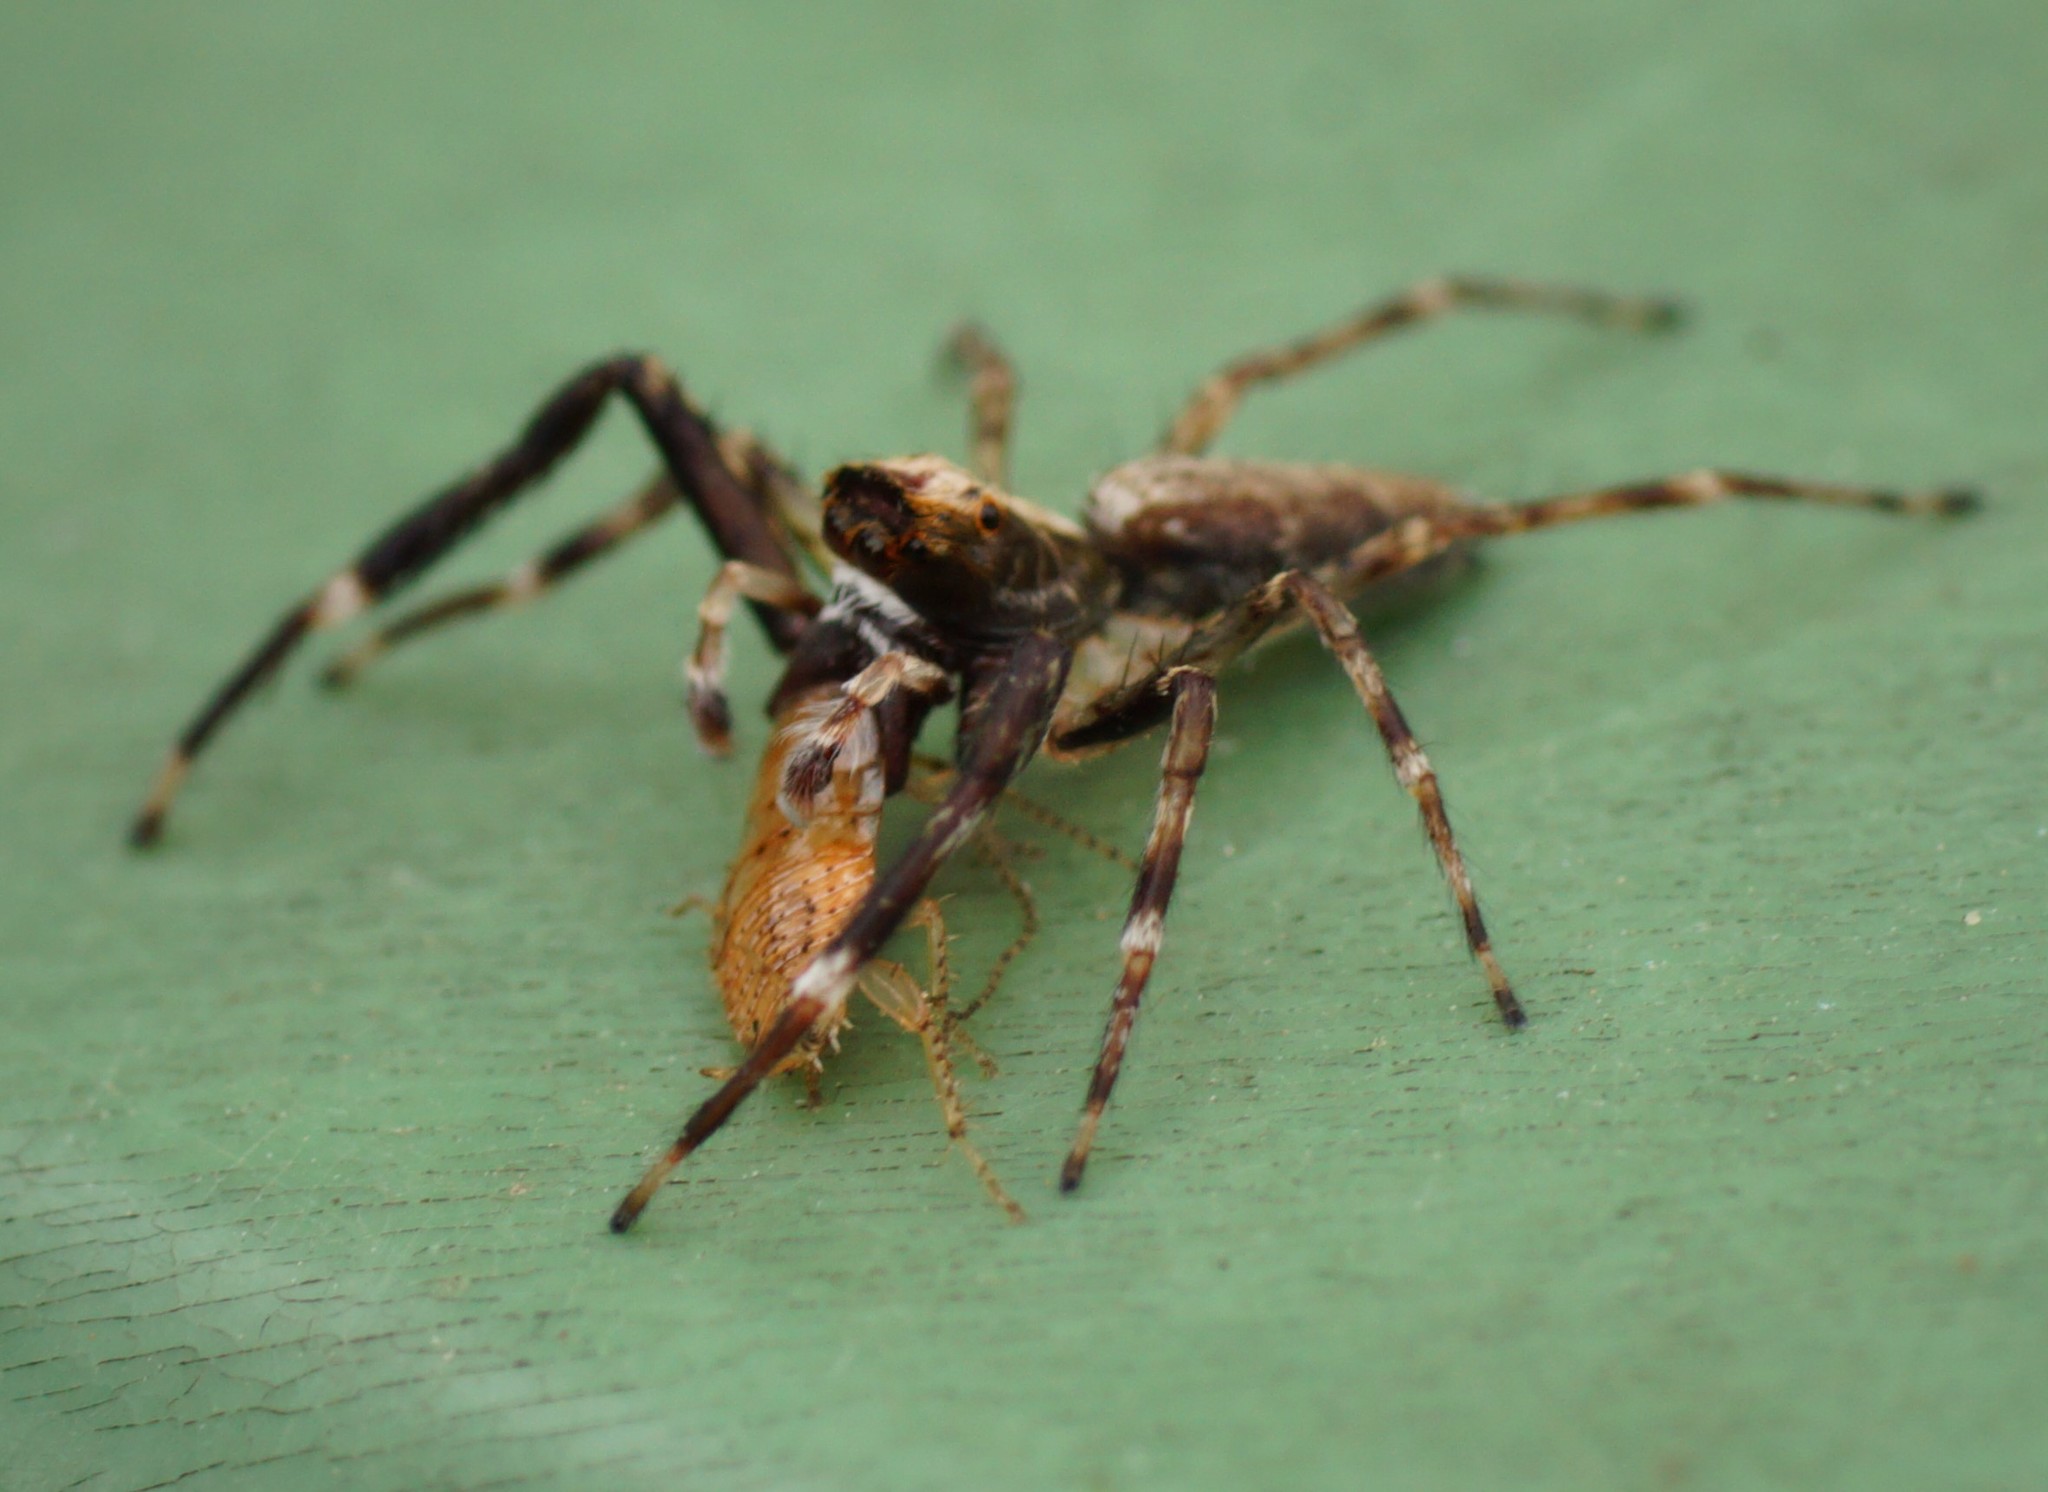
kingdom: Animalia
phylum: Arthropoda
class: Arachnida
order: Araneae
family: Salticidae
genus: Helpis
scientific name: Helpis minitabunda
